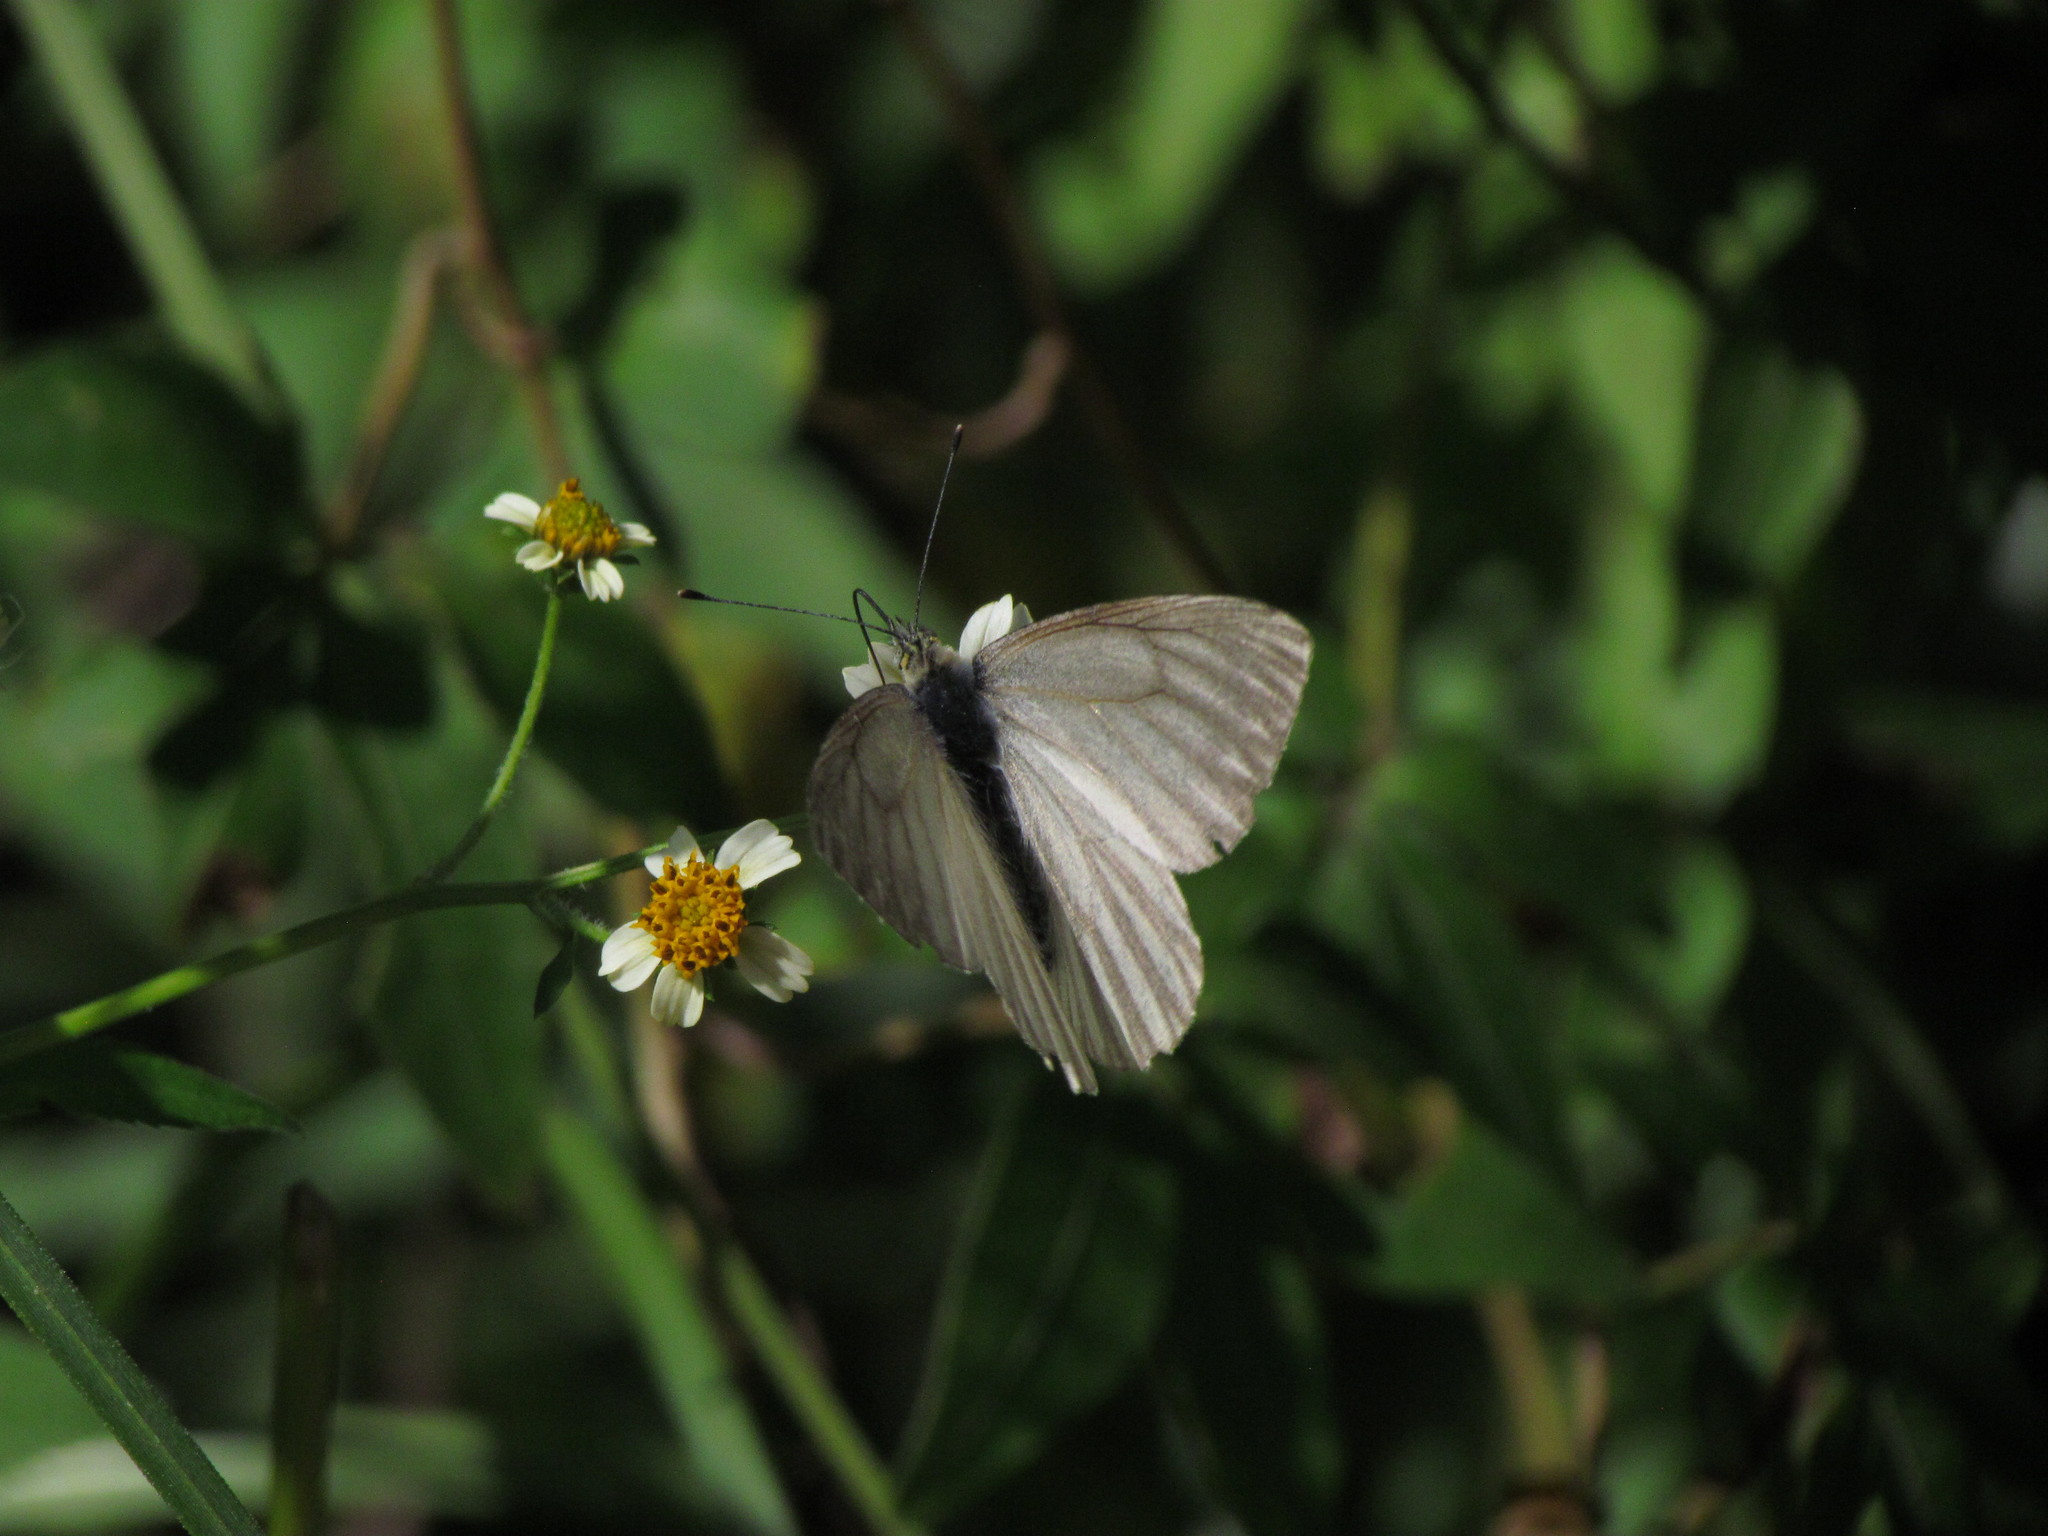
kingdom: Animalia
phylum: Arthropoda
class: Insecta
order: Lepidoptera
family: Pieridae
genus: Theochila
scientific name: Theochila maenacte
